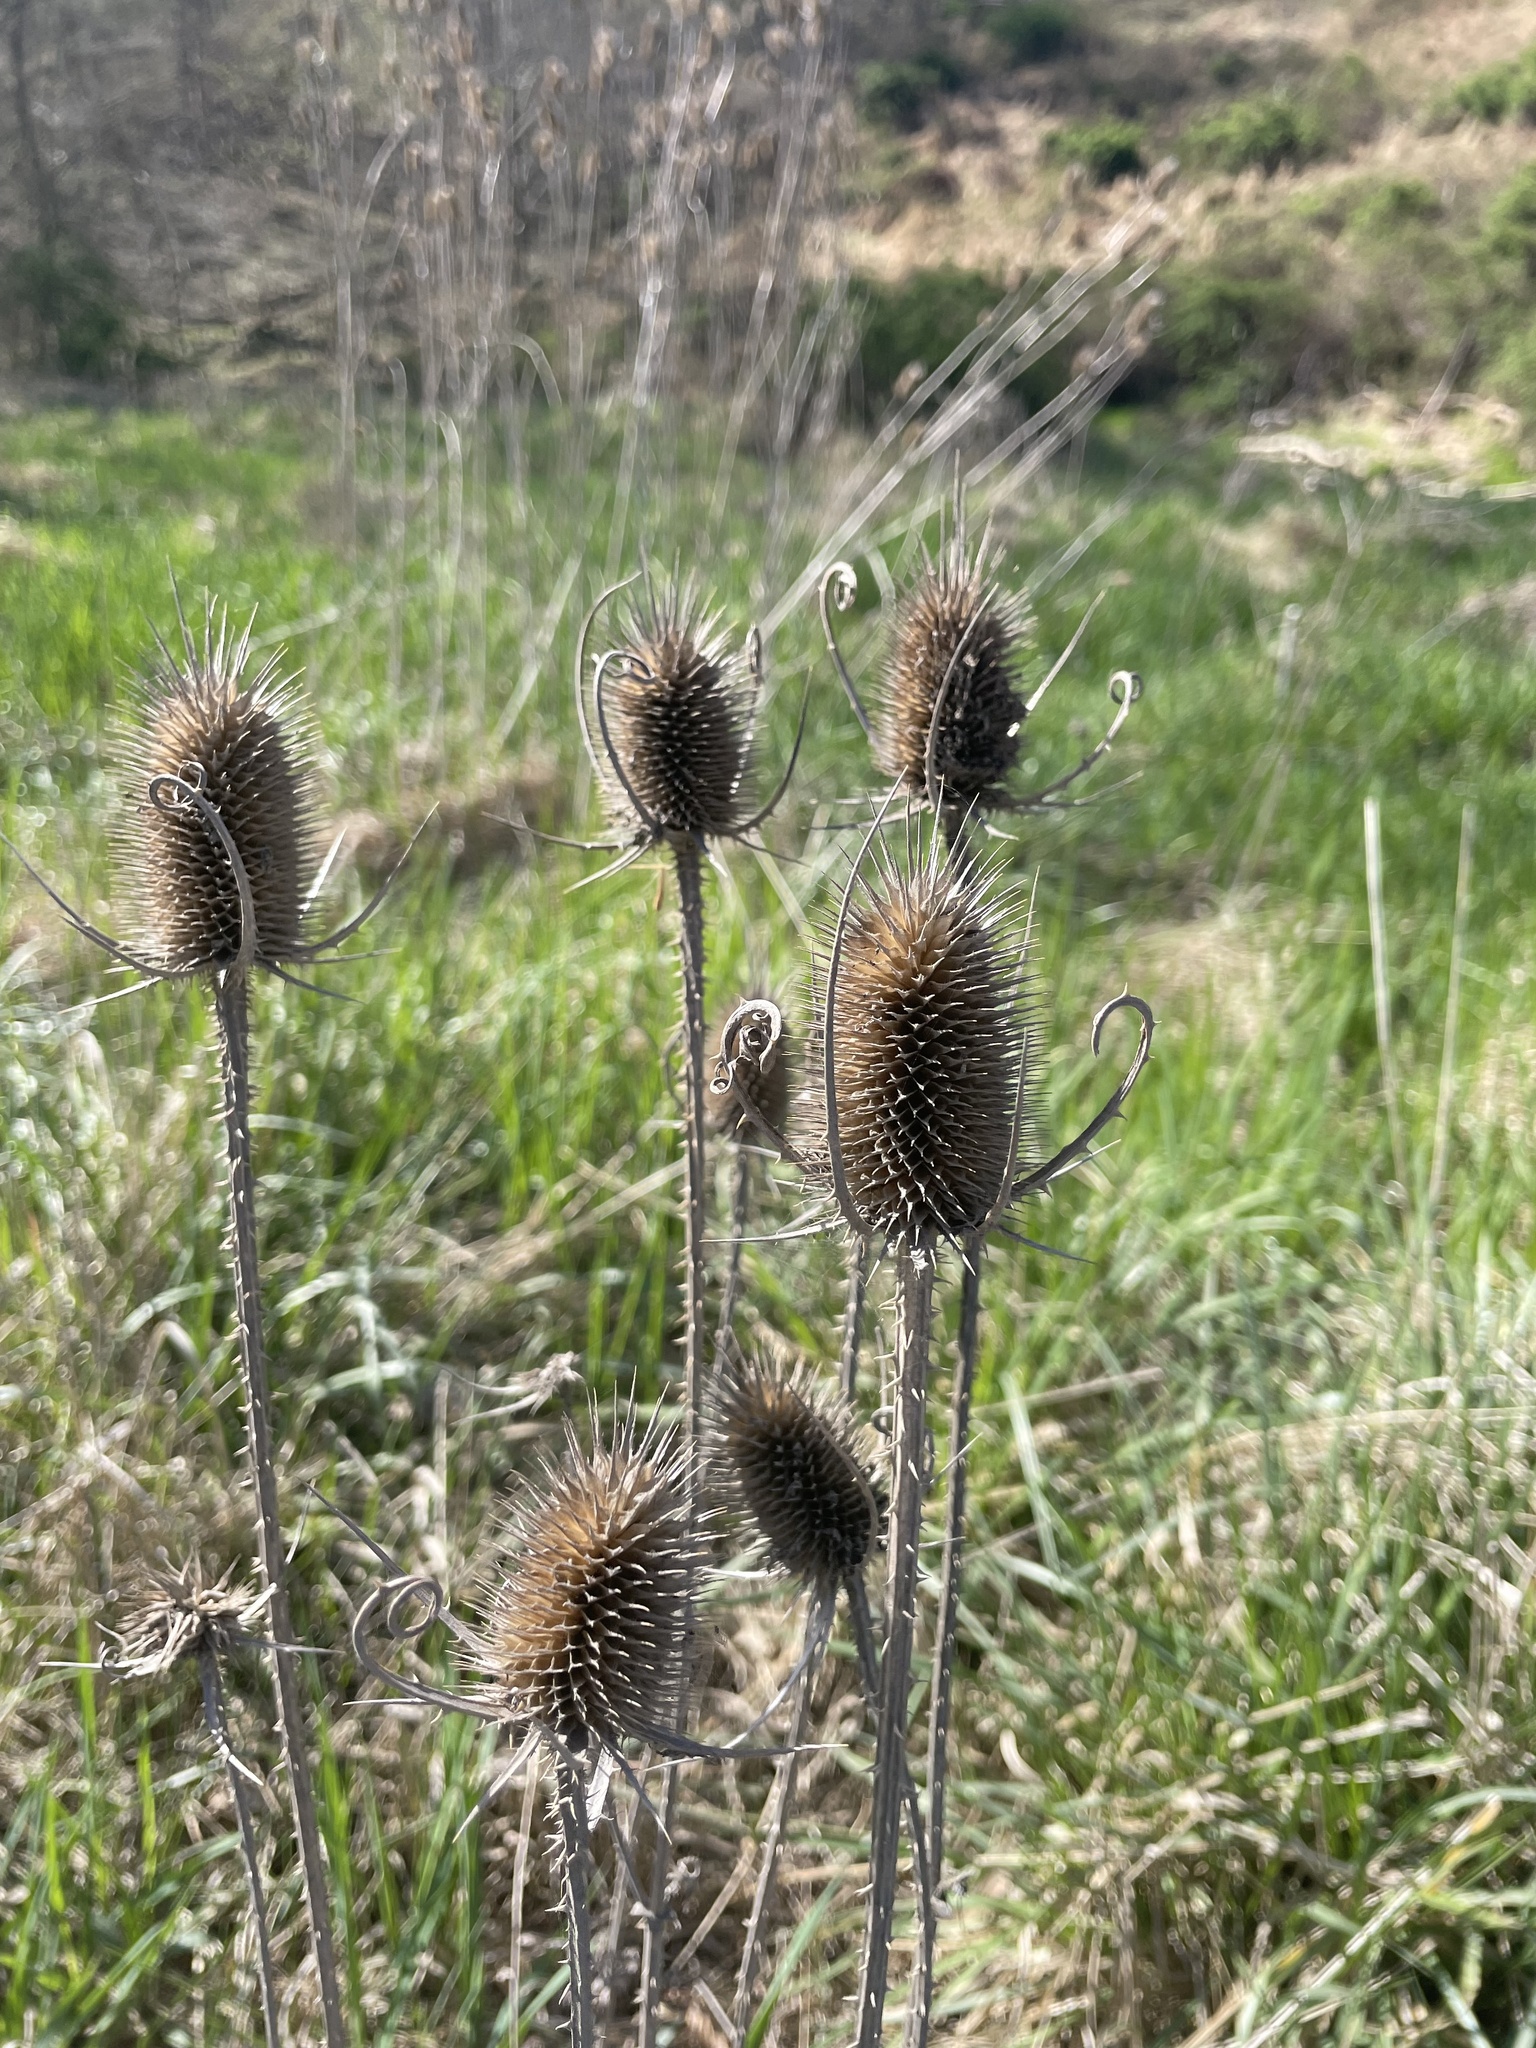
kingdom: Plantae
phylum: Tracheophyta
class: Magnoliopsida
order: Dipsacales
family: Caprifoliaceae
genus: Dipsacus
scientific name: Dipsacus fullonum
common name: Teasel
